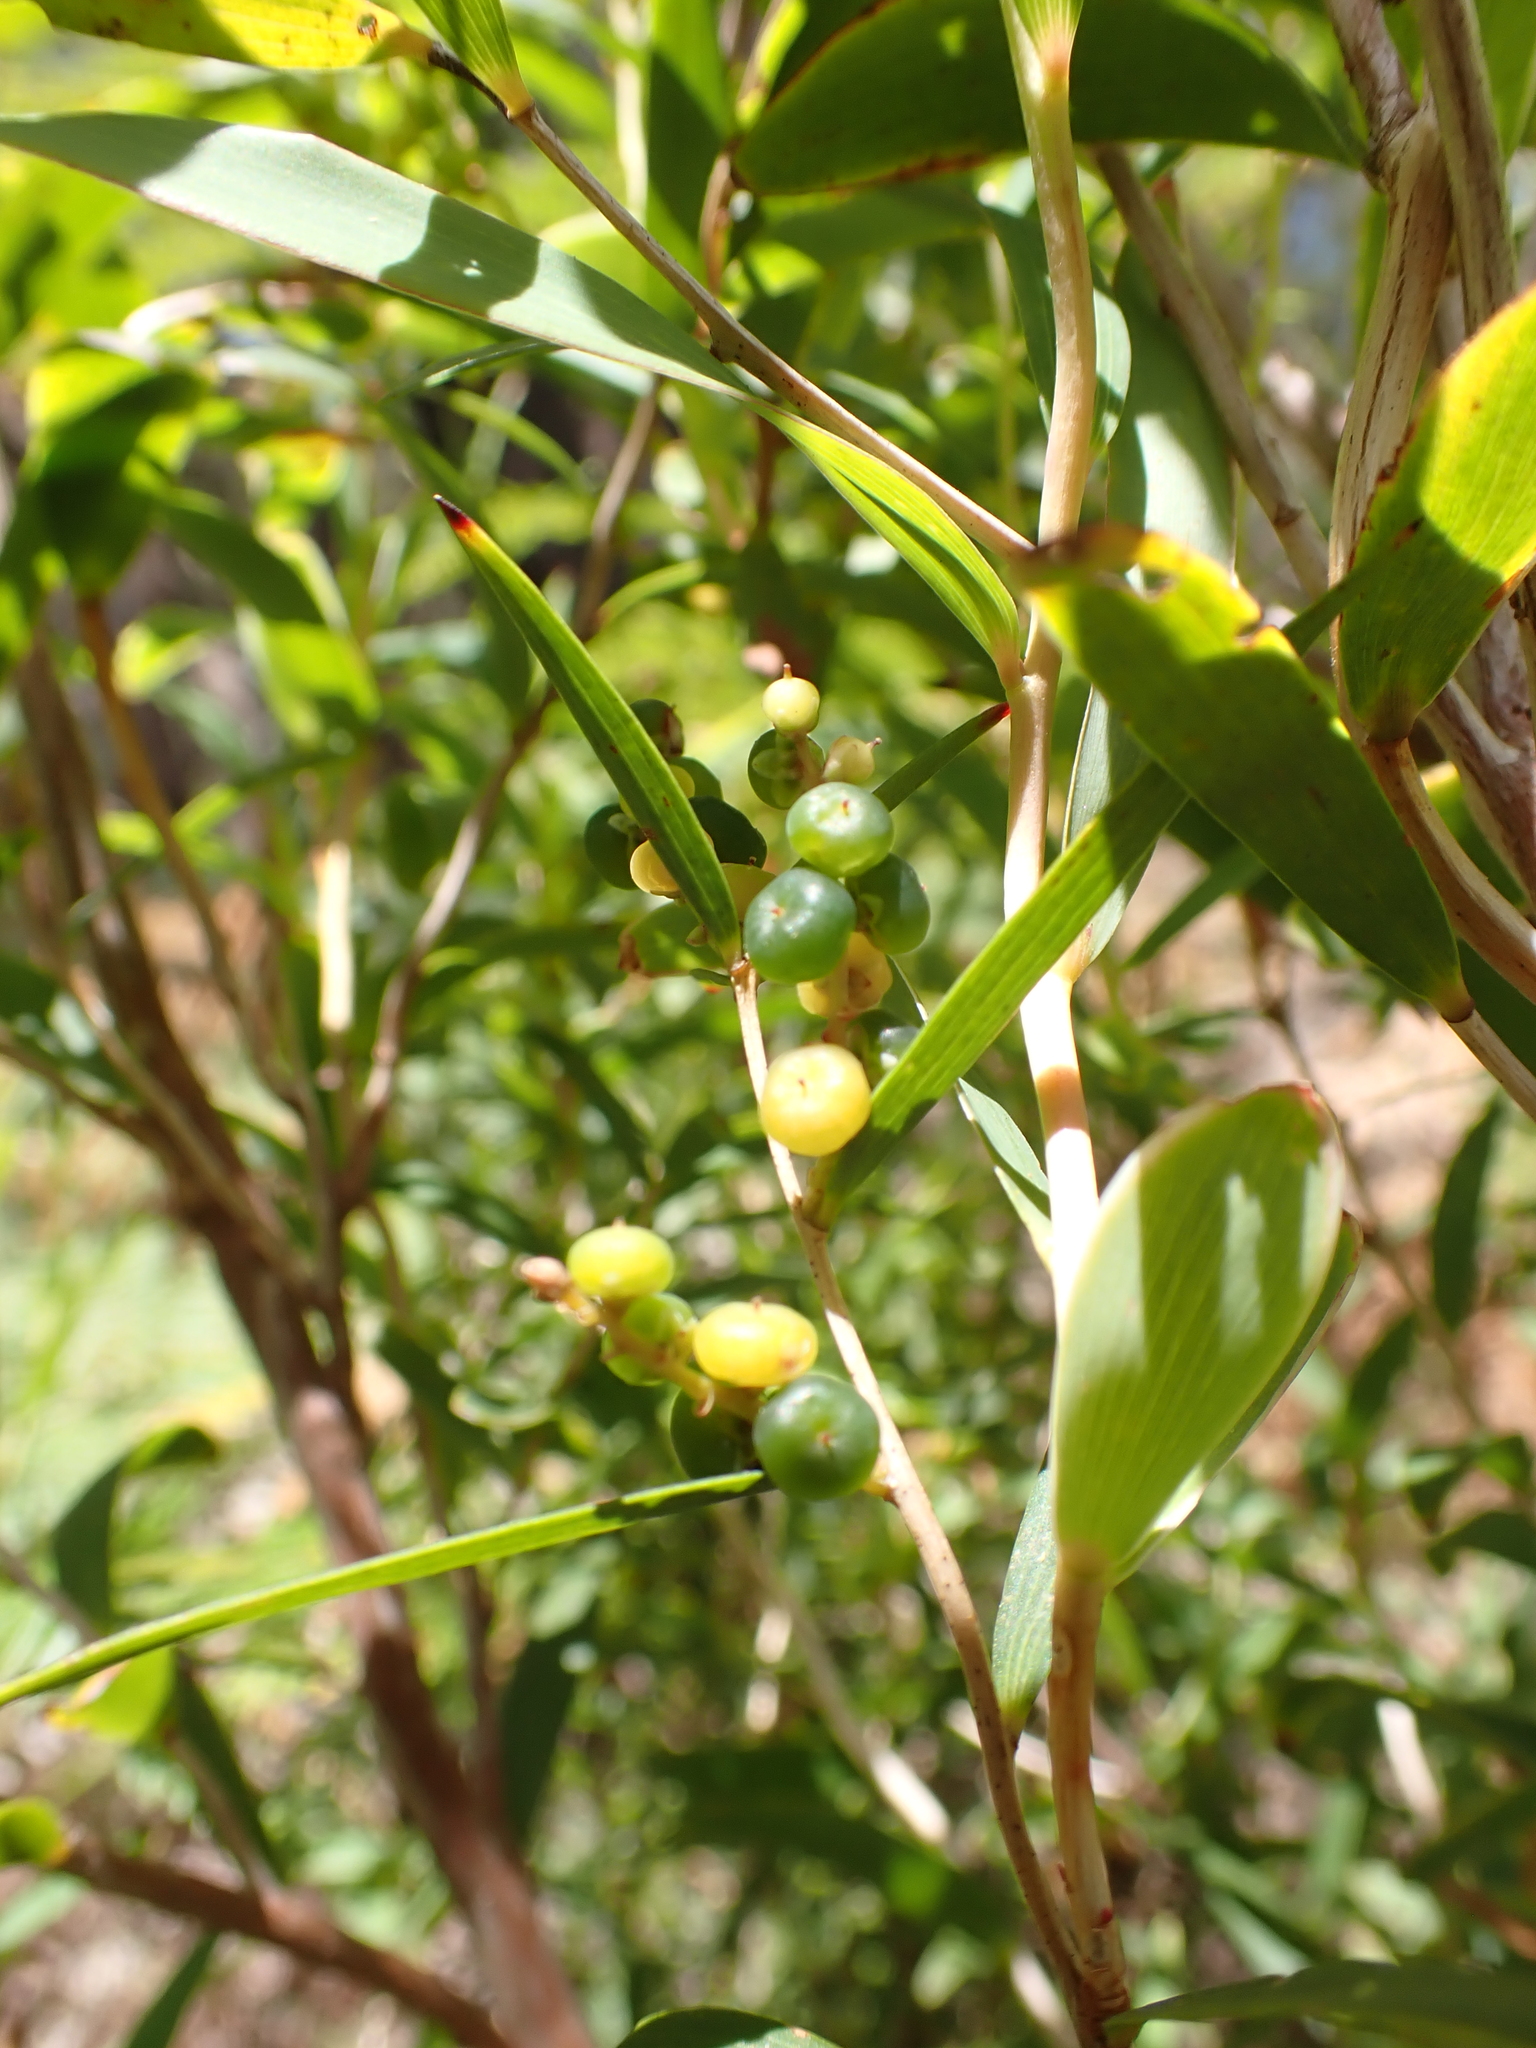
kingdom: Plantae
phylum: Tracheophyta
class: Magnoliopsida
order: Ericales
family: Ericaceae
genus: Leucopogon
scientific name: Leucopogon australis
